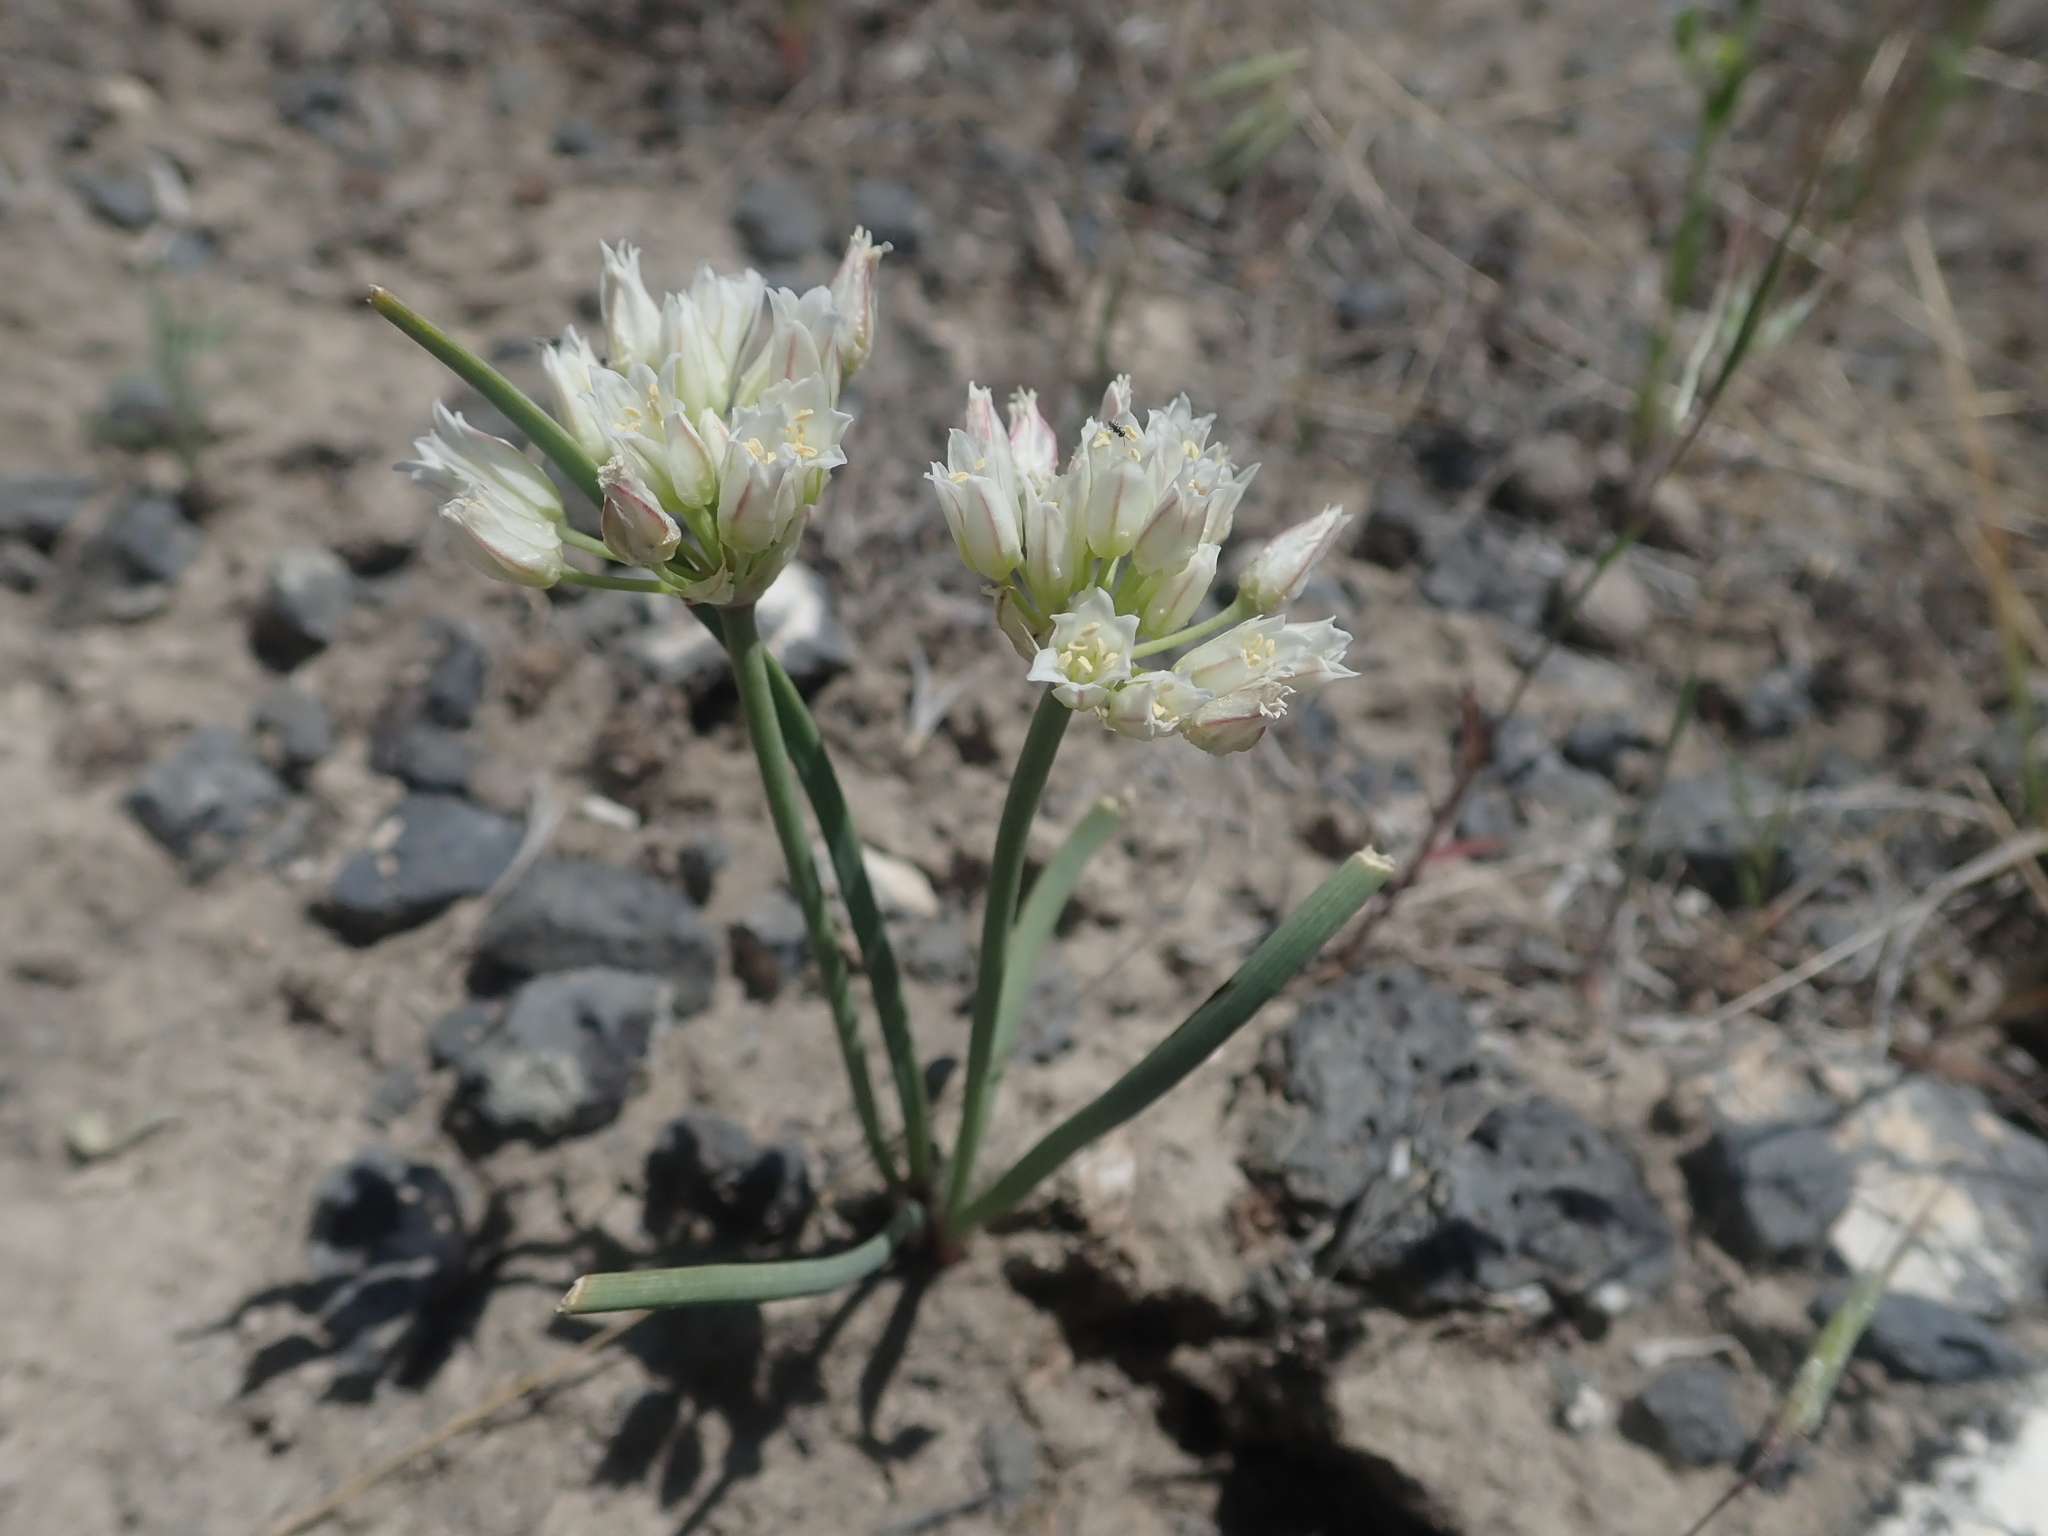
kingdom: Plantae
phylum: Tracheophyta
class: Liliopsida
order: Asparagales
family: Amaryllidaceae
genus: Allium
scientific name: Allium textile
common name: Prairie onion
